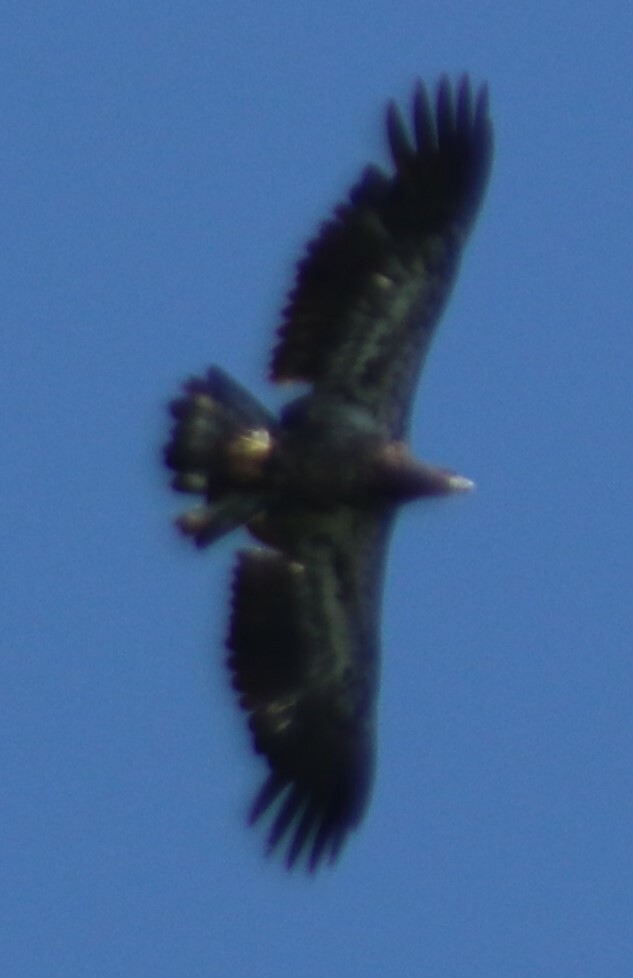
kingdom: Animalia
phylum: Chordata
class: Aves
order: Accipitriformes
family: Accipitridae
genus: Haliaeetus
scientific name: Haliaeetus leucocephalus
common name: Bald eagle
